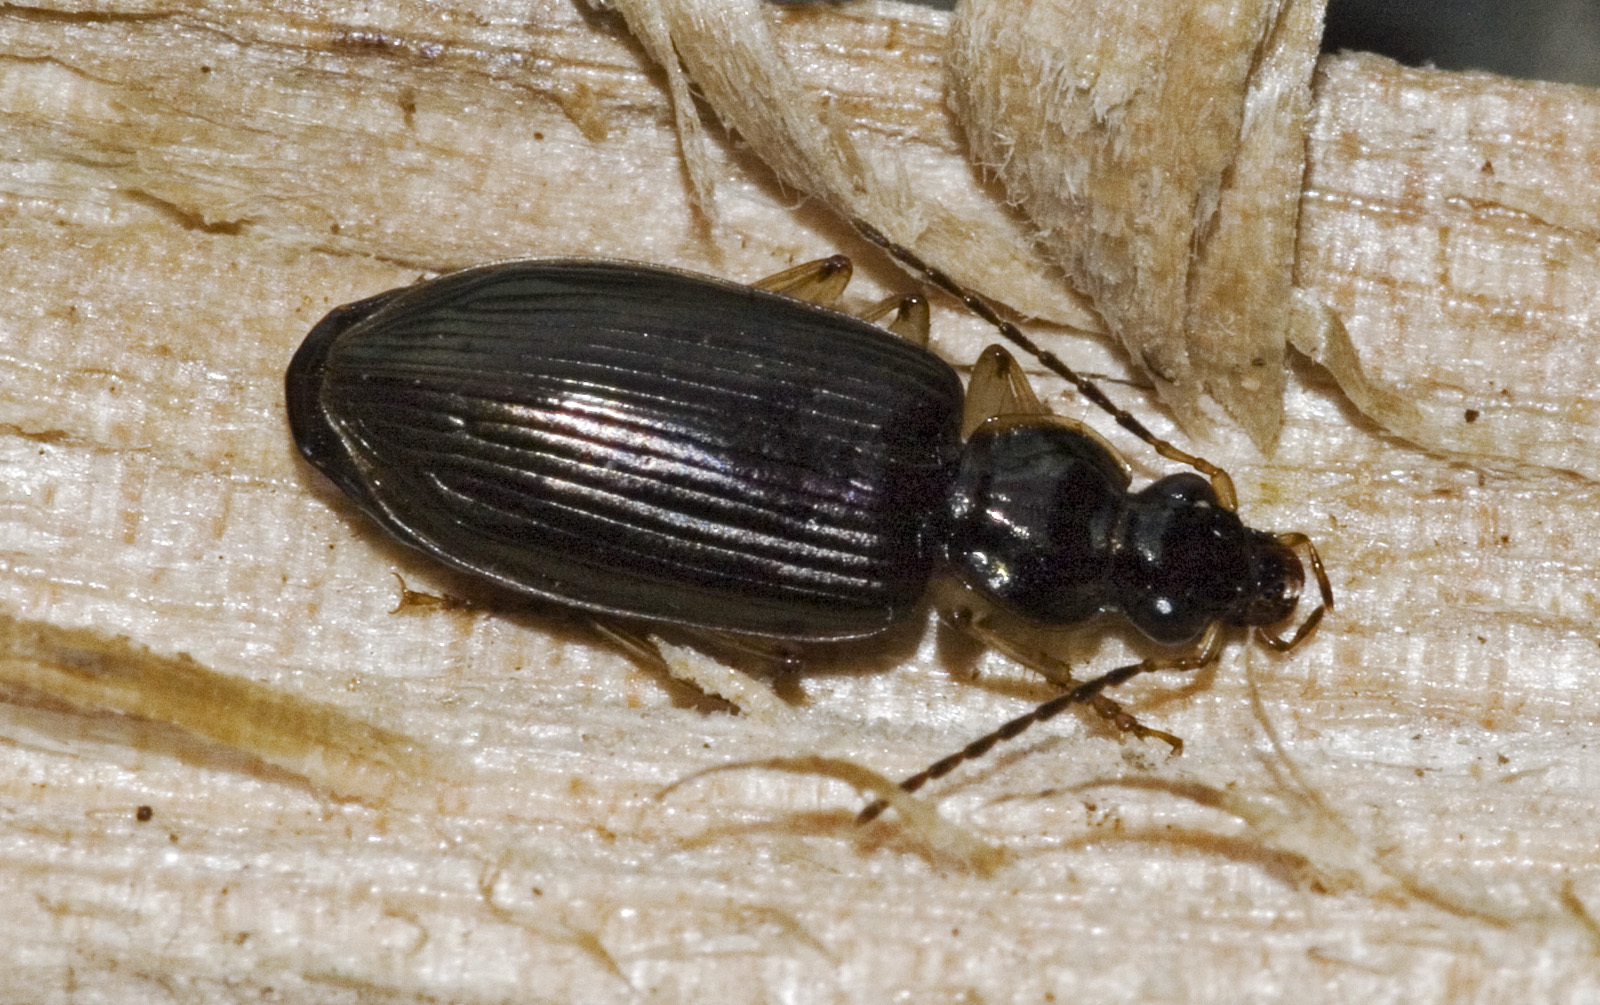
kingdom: Animalia
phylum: Arthropoda
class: Insecta
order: Coleoptera
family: Carabidae
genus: Notagonum
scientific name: Notagonum submetallicum
